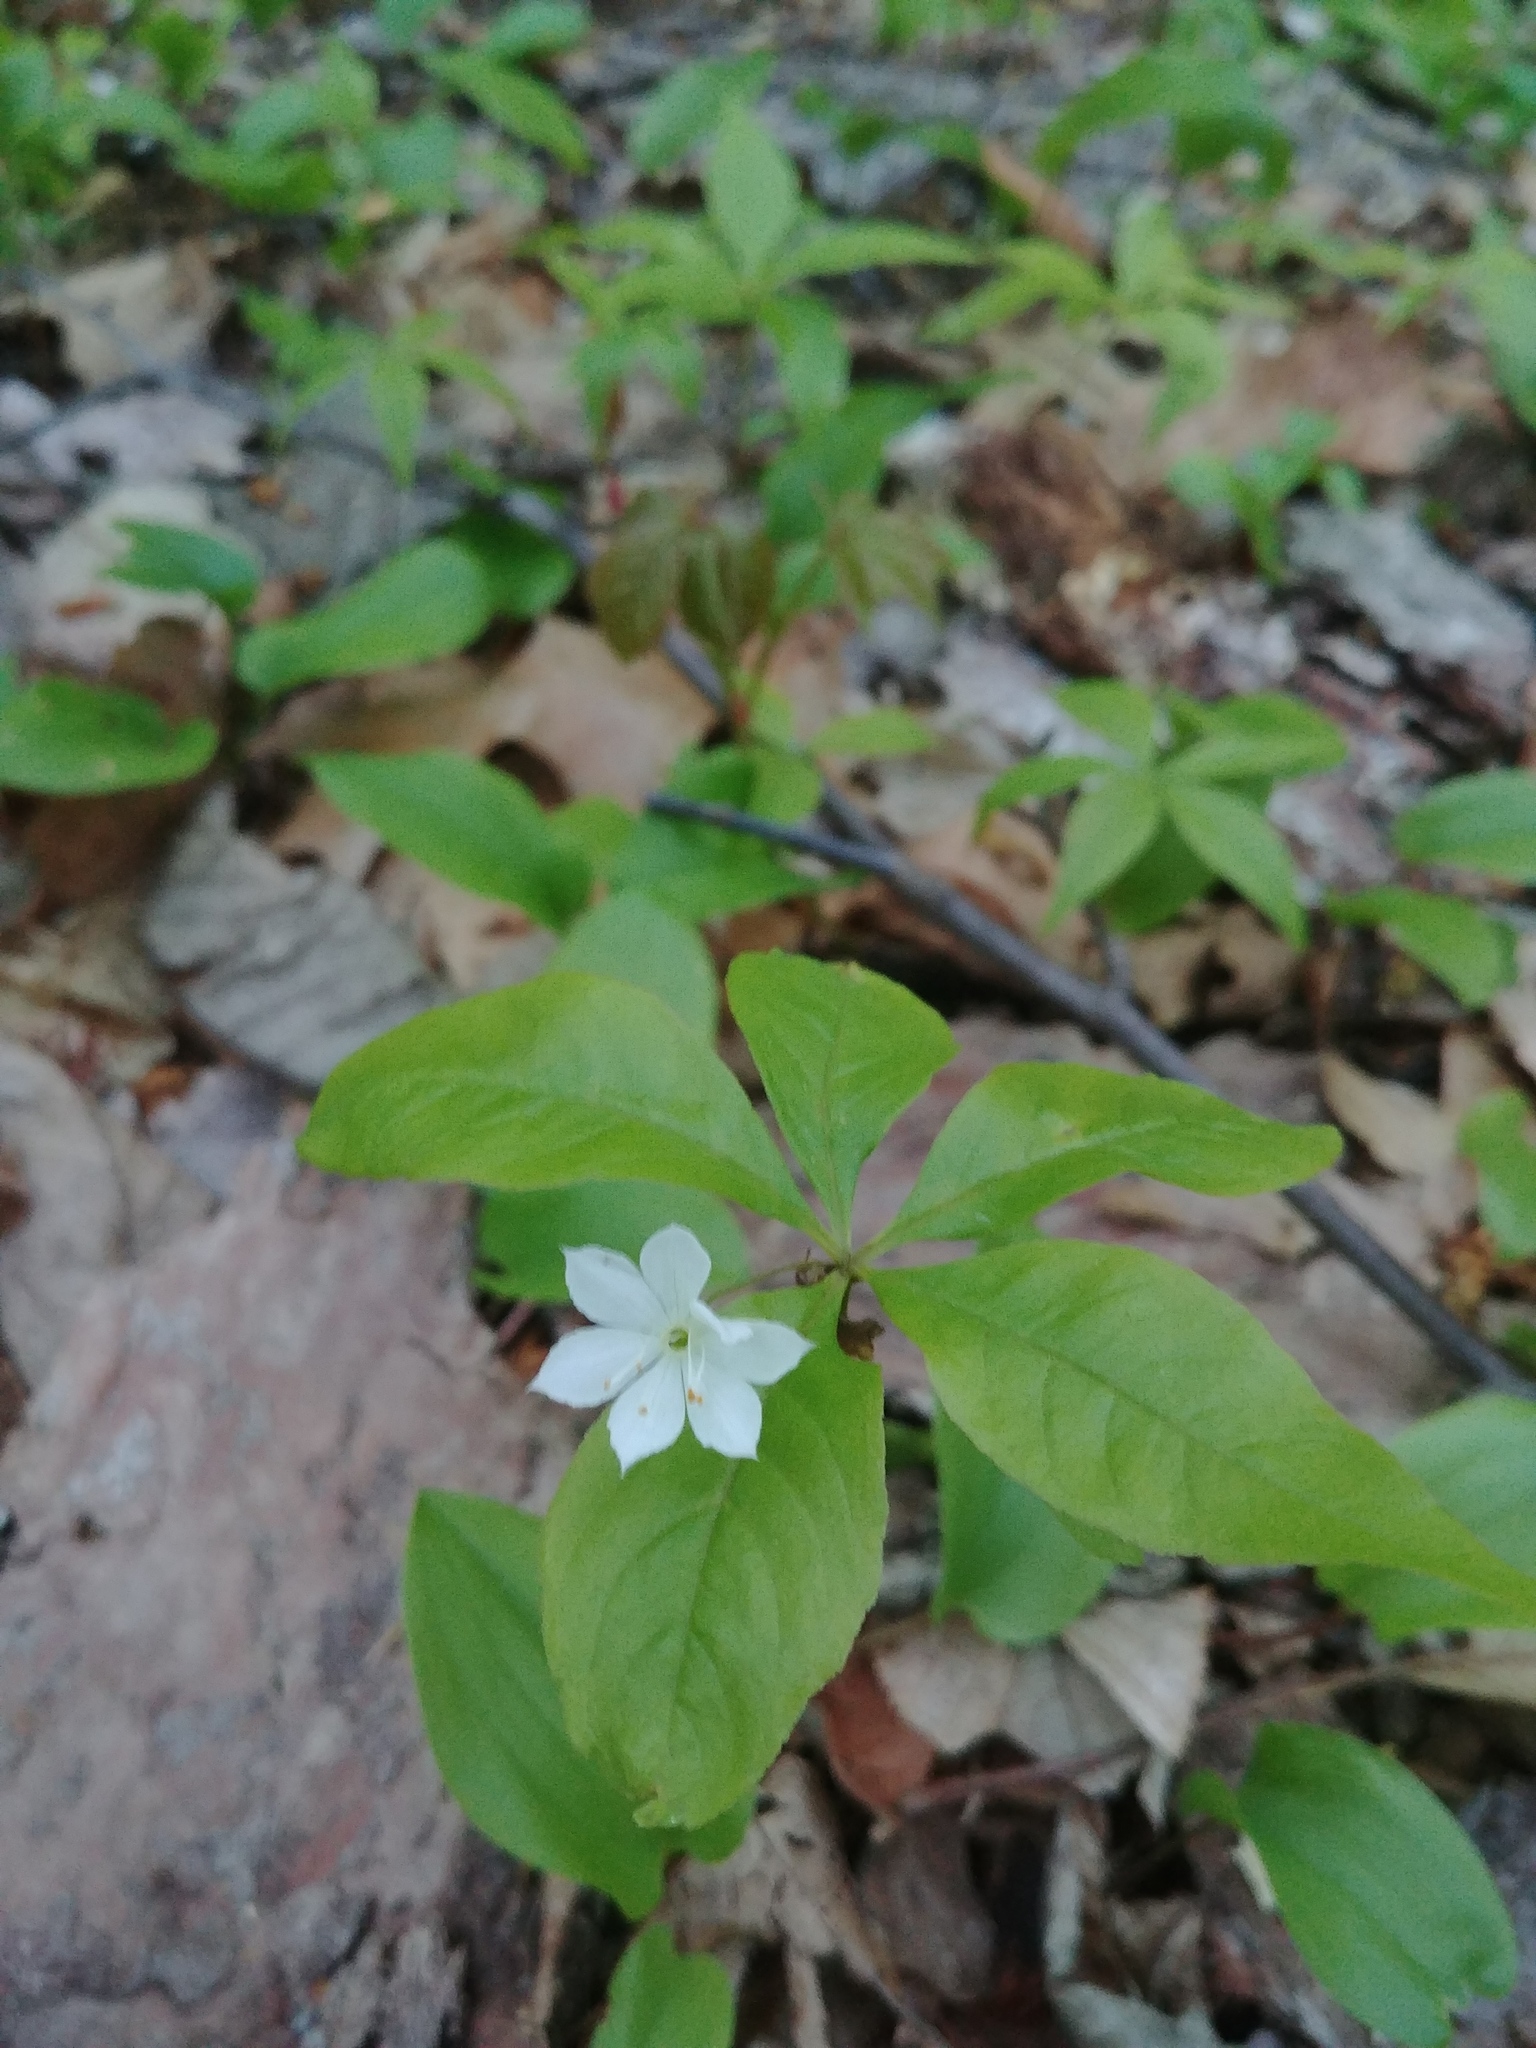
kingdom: Plantae
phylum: Tracheophyta
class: Magnoliopsida
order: Ericales
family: Primulaceae
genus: Lysimachia
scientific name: Lysimachia borealis
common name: American starflower
